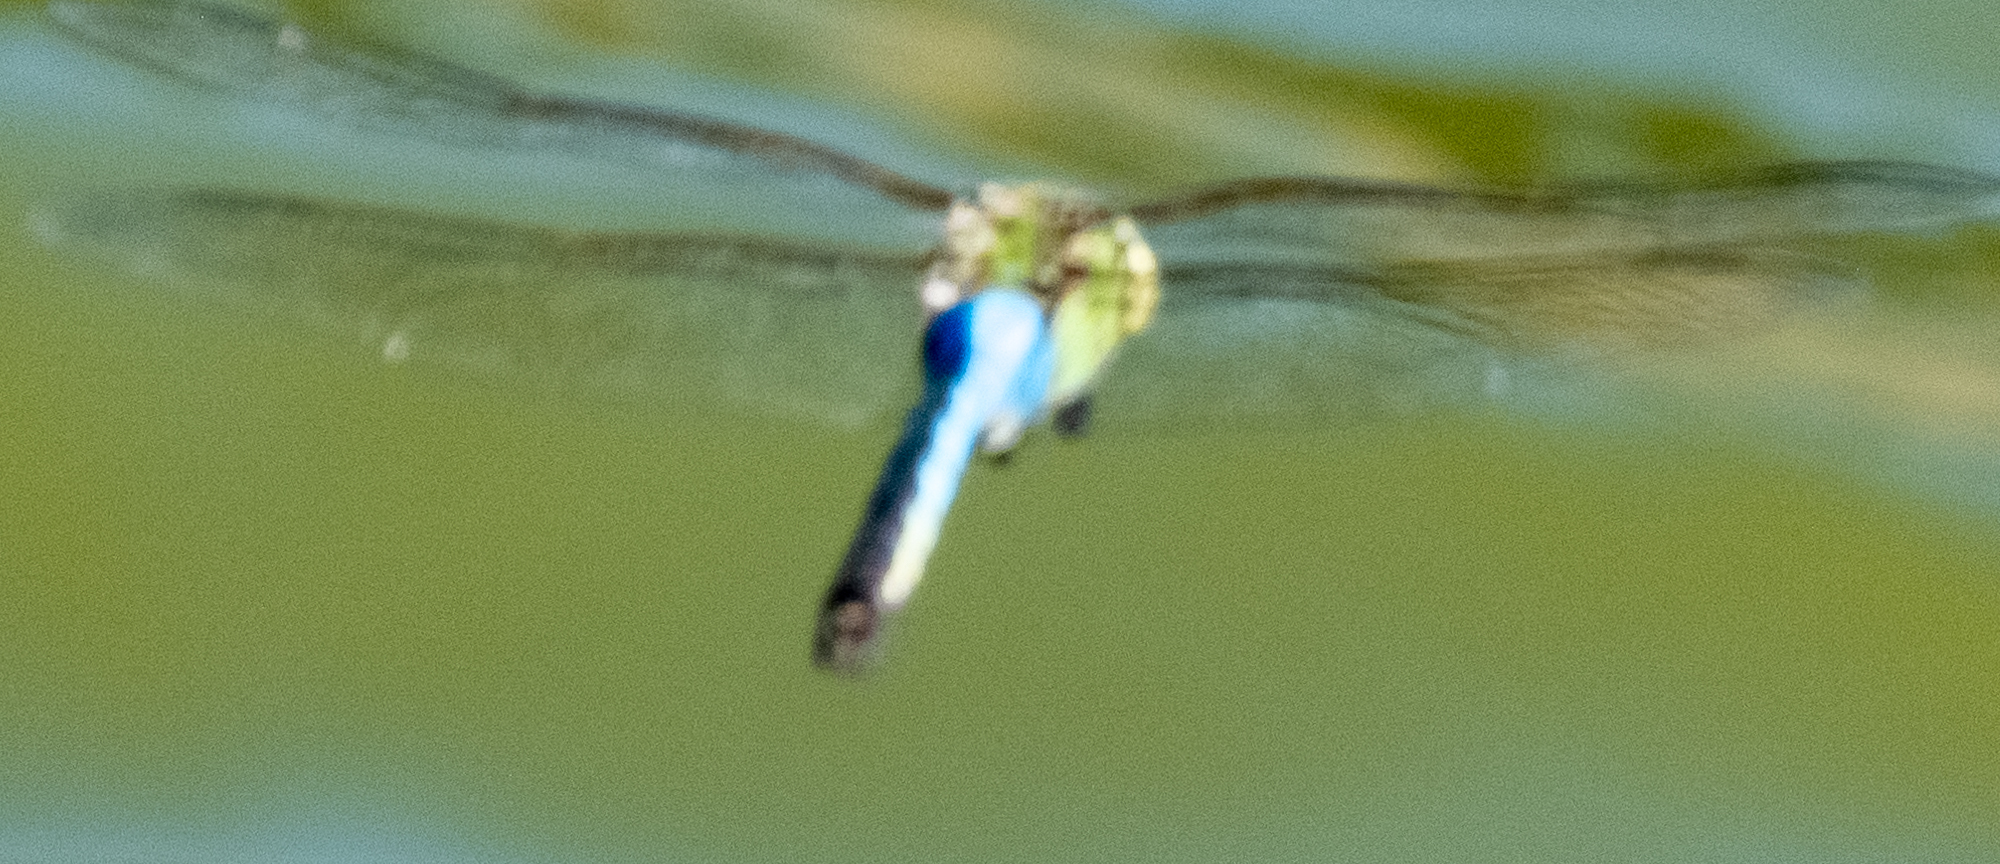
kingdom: Animalia
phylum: Arthropoda
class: Insecta
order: Odonata
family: Aeshnidae
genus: Anax
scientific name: Anax junius
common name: Common green darner
